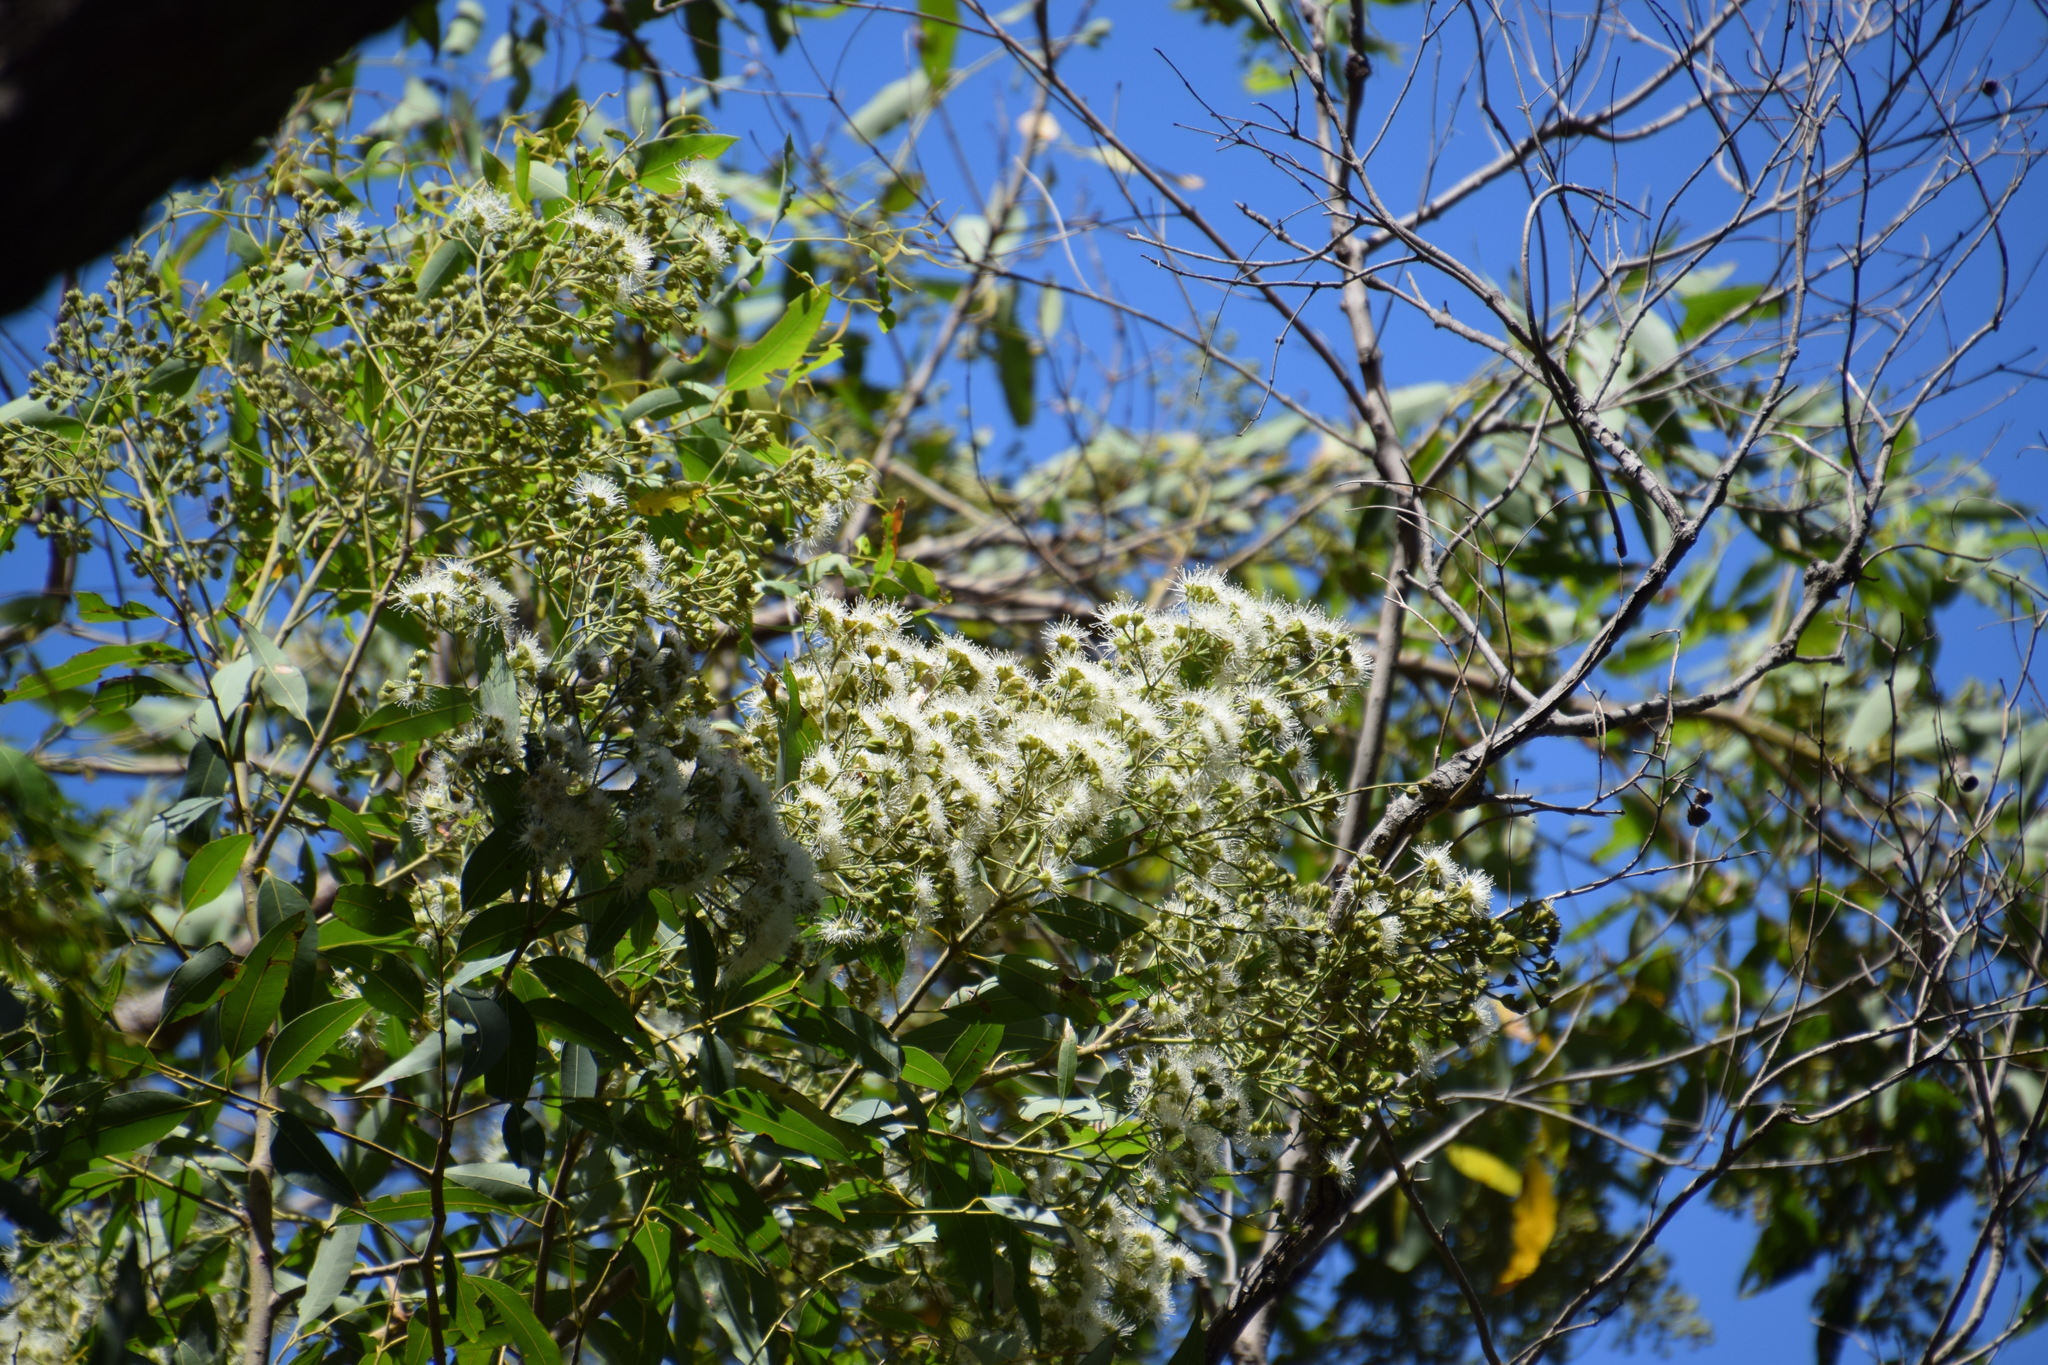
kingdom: Plantae
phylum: Tracheophyta
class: Magnoliopsida
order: Myrtales
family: Myrtaceae
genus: Angophora
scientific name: Angophora floribunda
